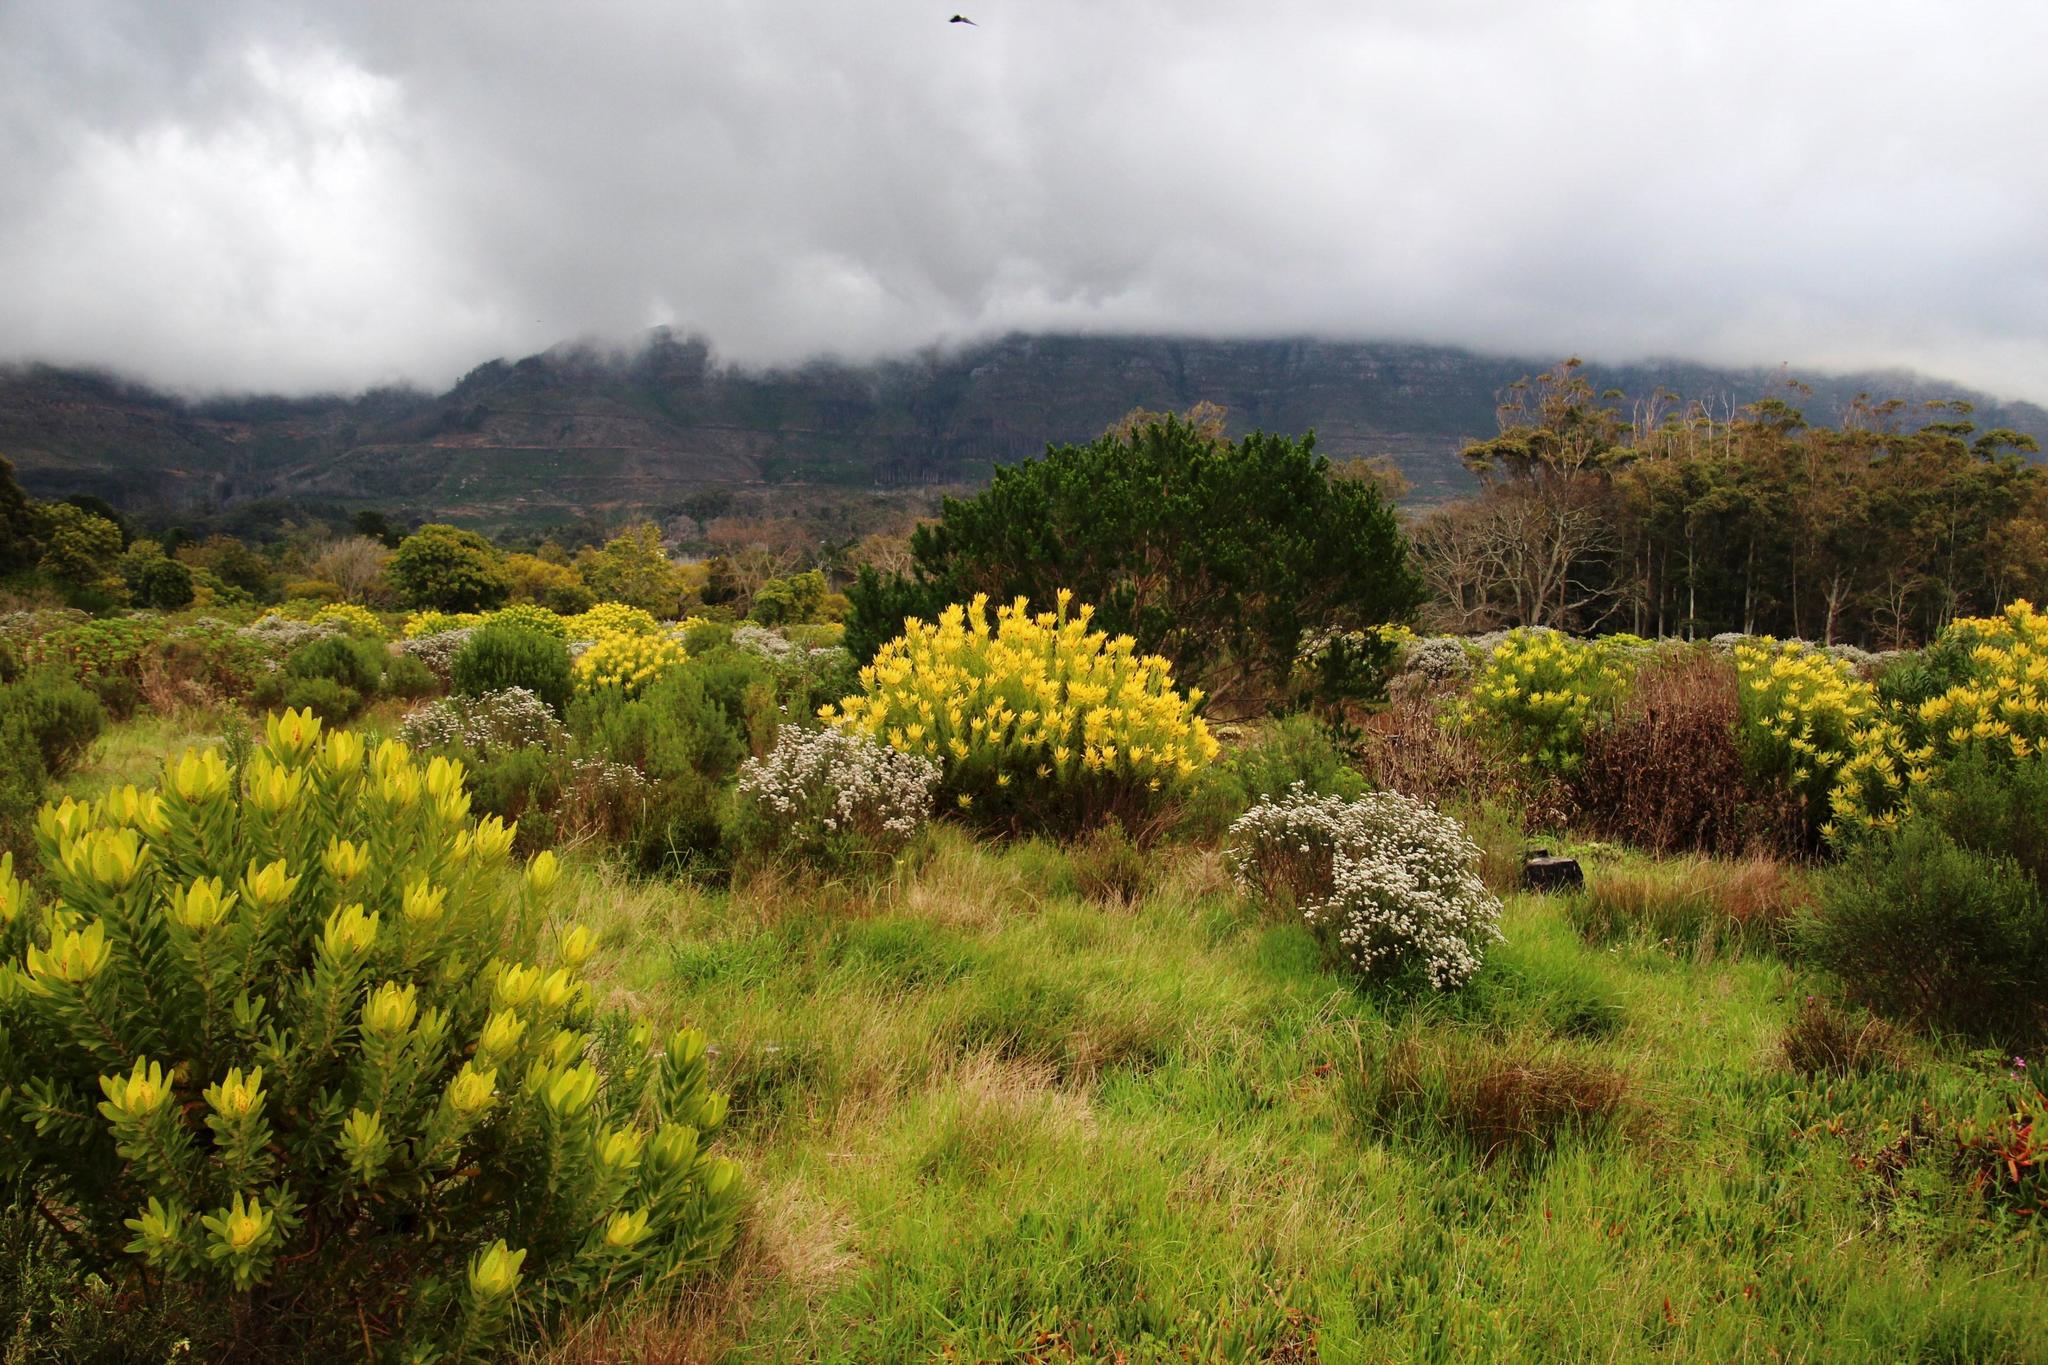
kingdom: Plantae
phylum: Tracheophyta
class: Magnoliopsida
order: Proteales
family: Proteaceae
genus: Leucadendron
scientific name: Leucadendron laureolum
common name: Golden sunshinebush
